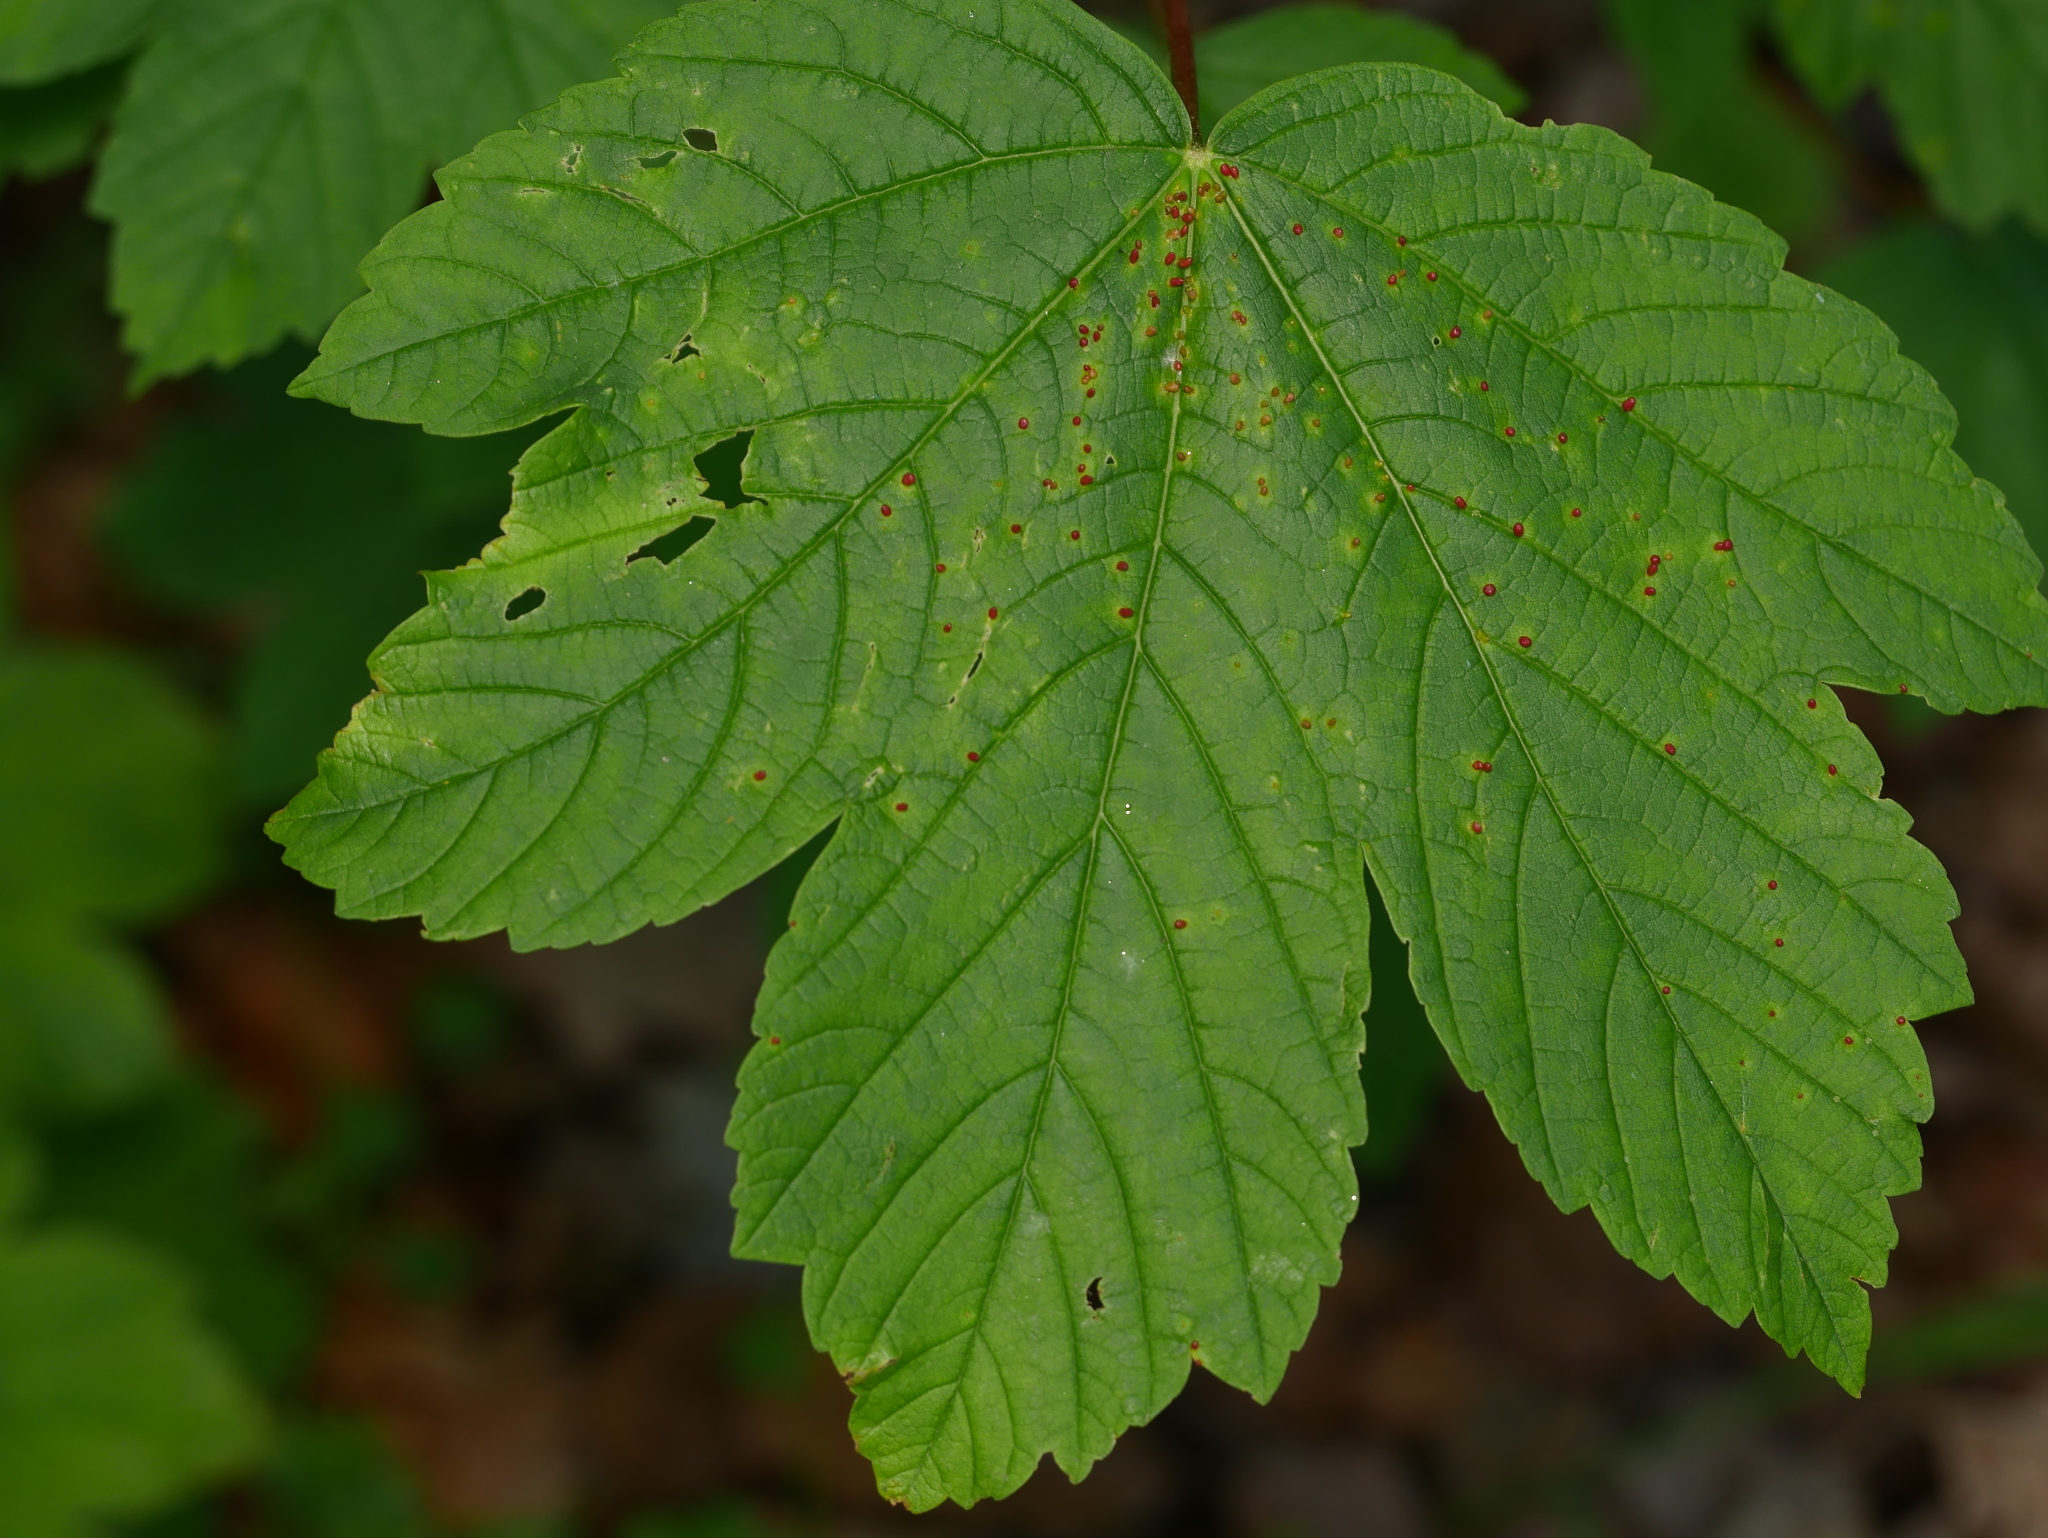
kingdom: Plantae
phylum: Tracheophyta
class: Magnoliopsida
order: Sapindales
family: Sapindaceae
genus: Acer
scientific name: Acer pseudoplatanus
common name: Sycamore
